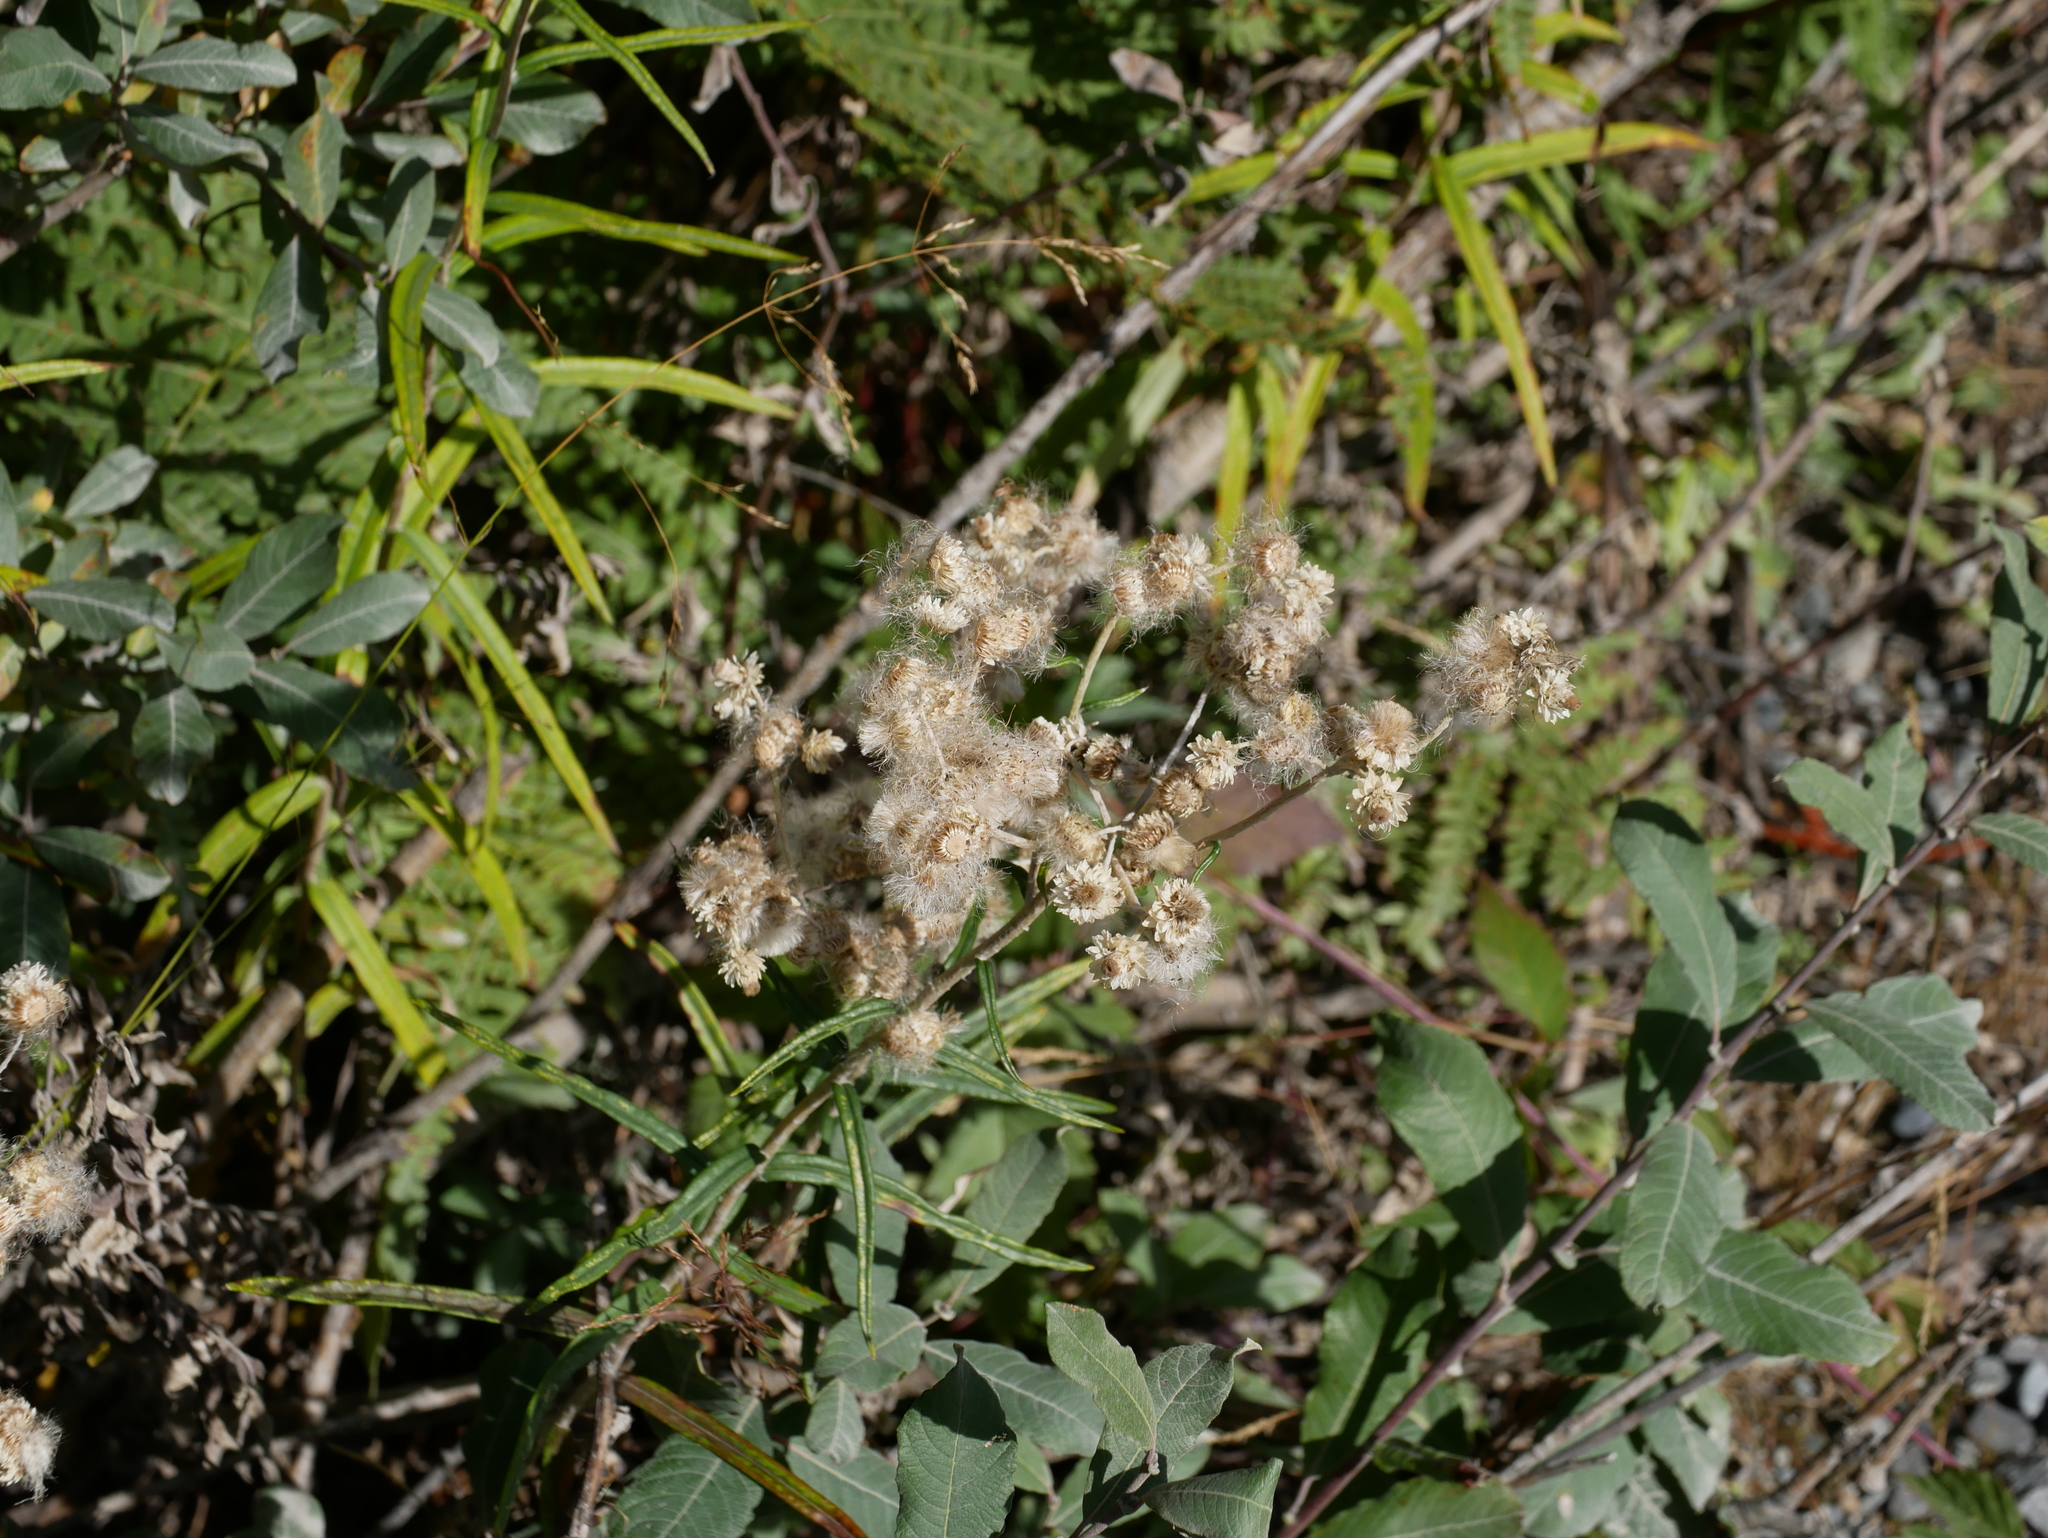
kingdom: Plantae
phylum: Tracheophyta
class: Magnoliopsida
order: Asterales
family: Asteraceae
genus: Anaphalis
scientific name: Anaphalis margaritacea
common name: Pearly everlasting
